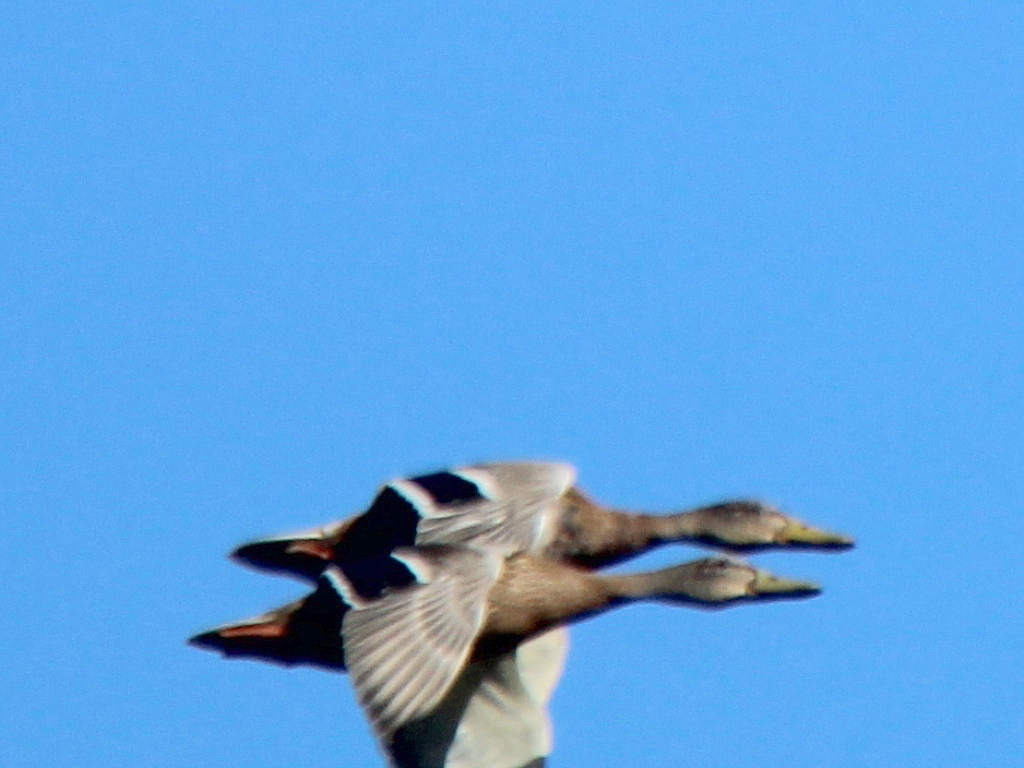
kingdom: Animalia
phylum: Chordata
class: Aves
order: Anseriformes
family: Anatidae
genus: Anas
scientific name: Anas platyrhynchos
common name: Mallard
